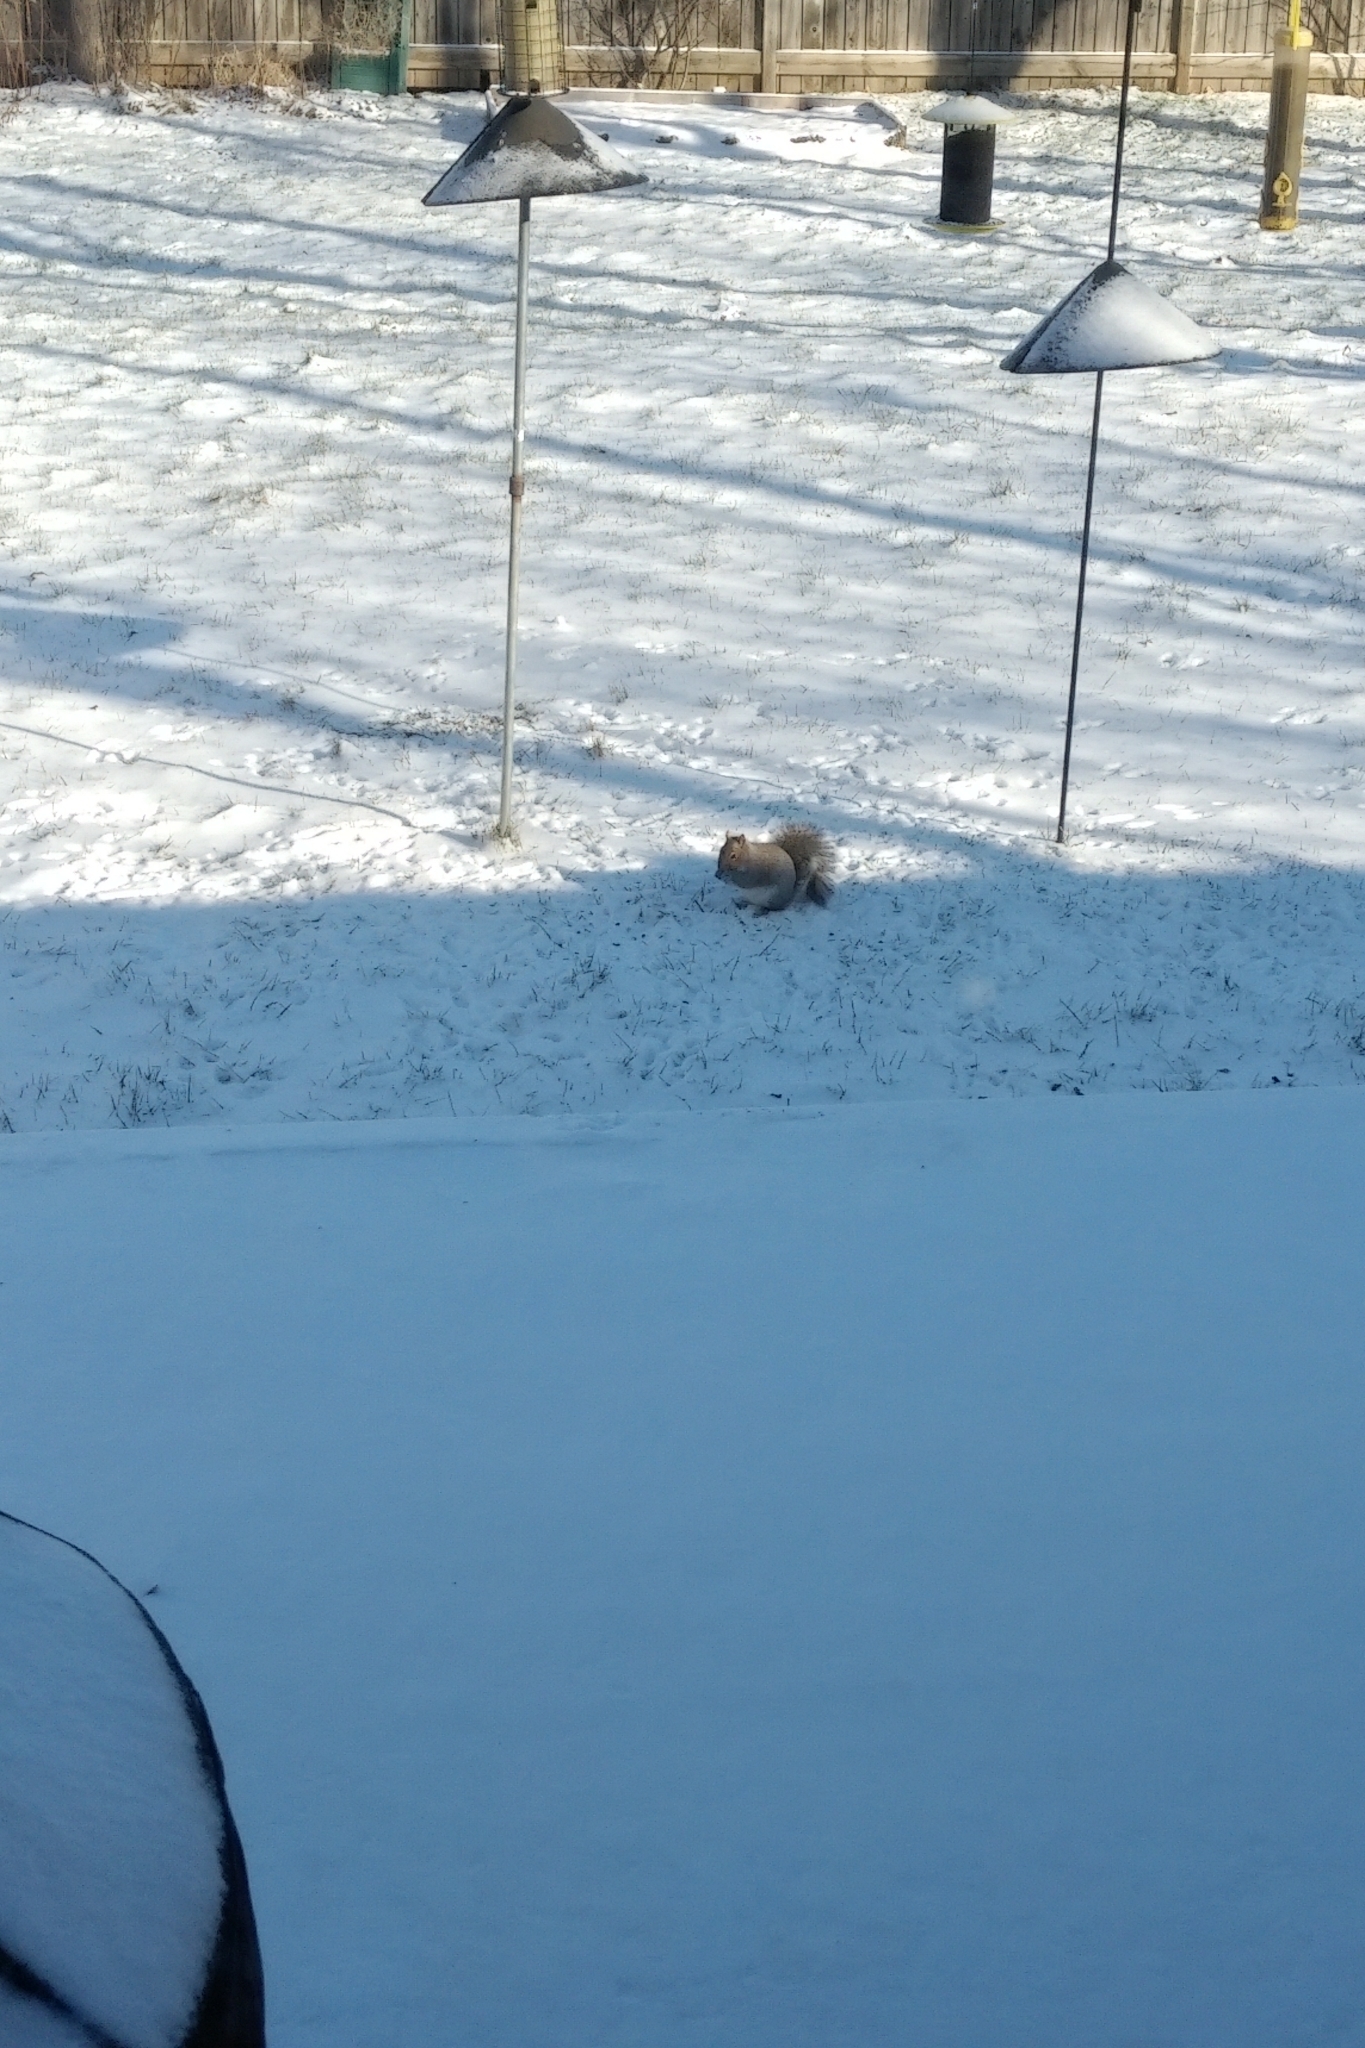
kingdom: Animalia
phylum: Chordata
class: Mammalia
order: Rodentia
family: Sciuridae
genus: Sciurus
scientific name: Sciurus carolinensis
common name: Eastern gray squirrel
